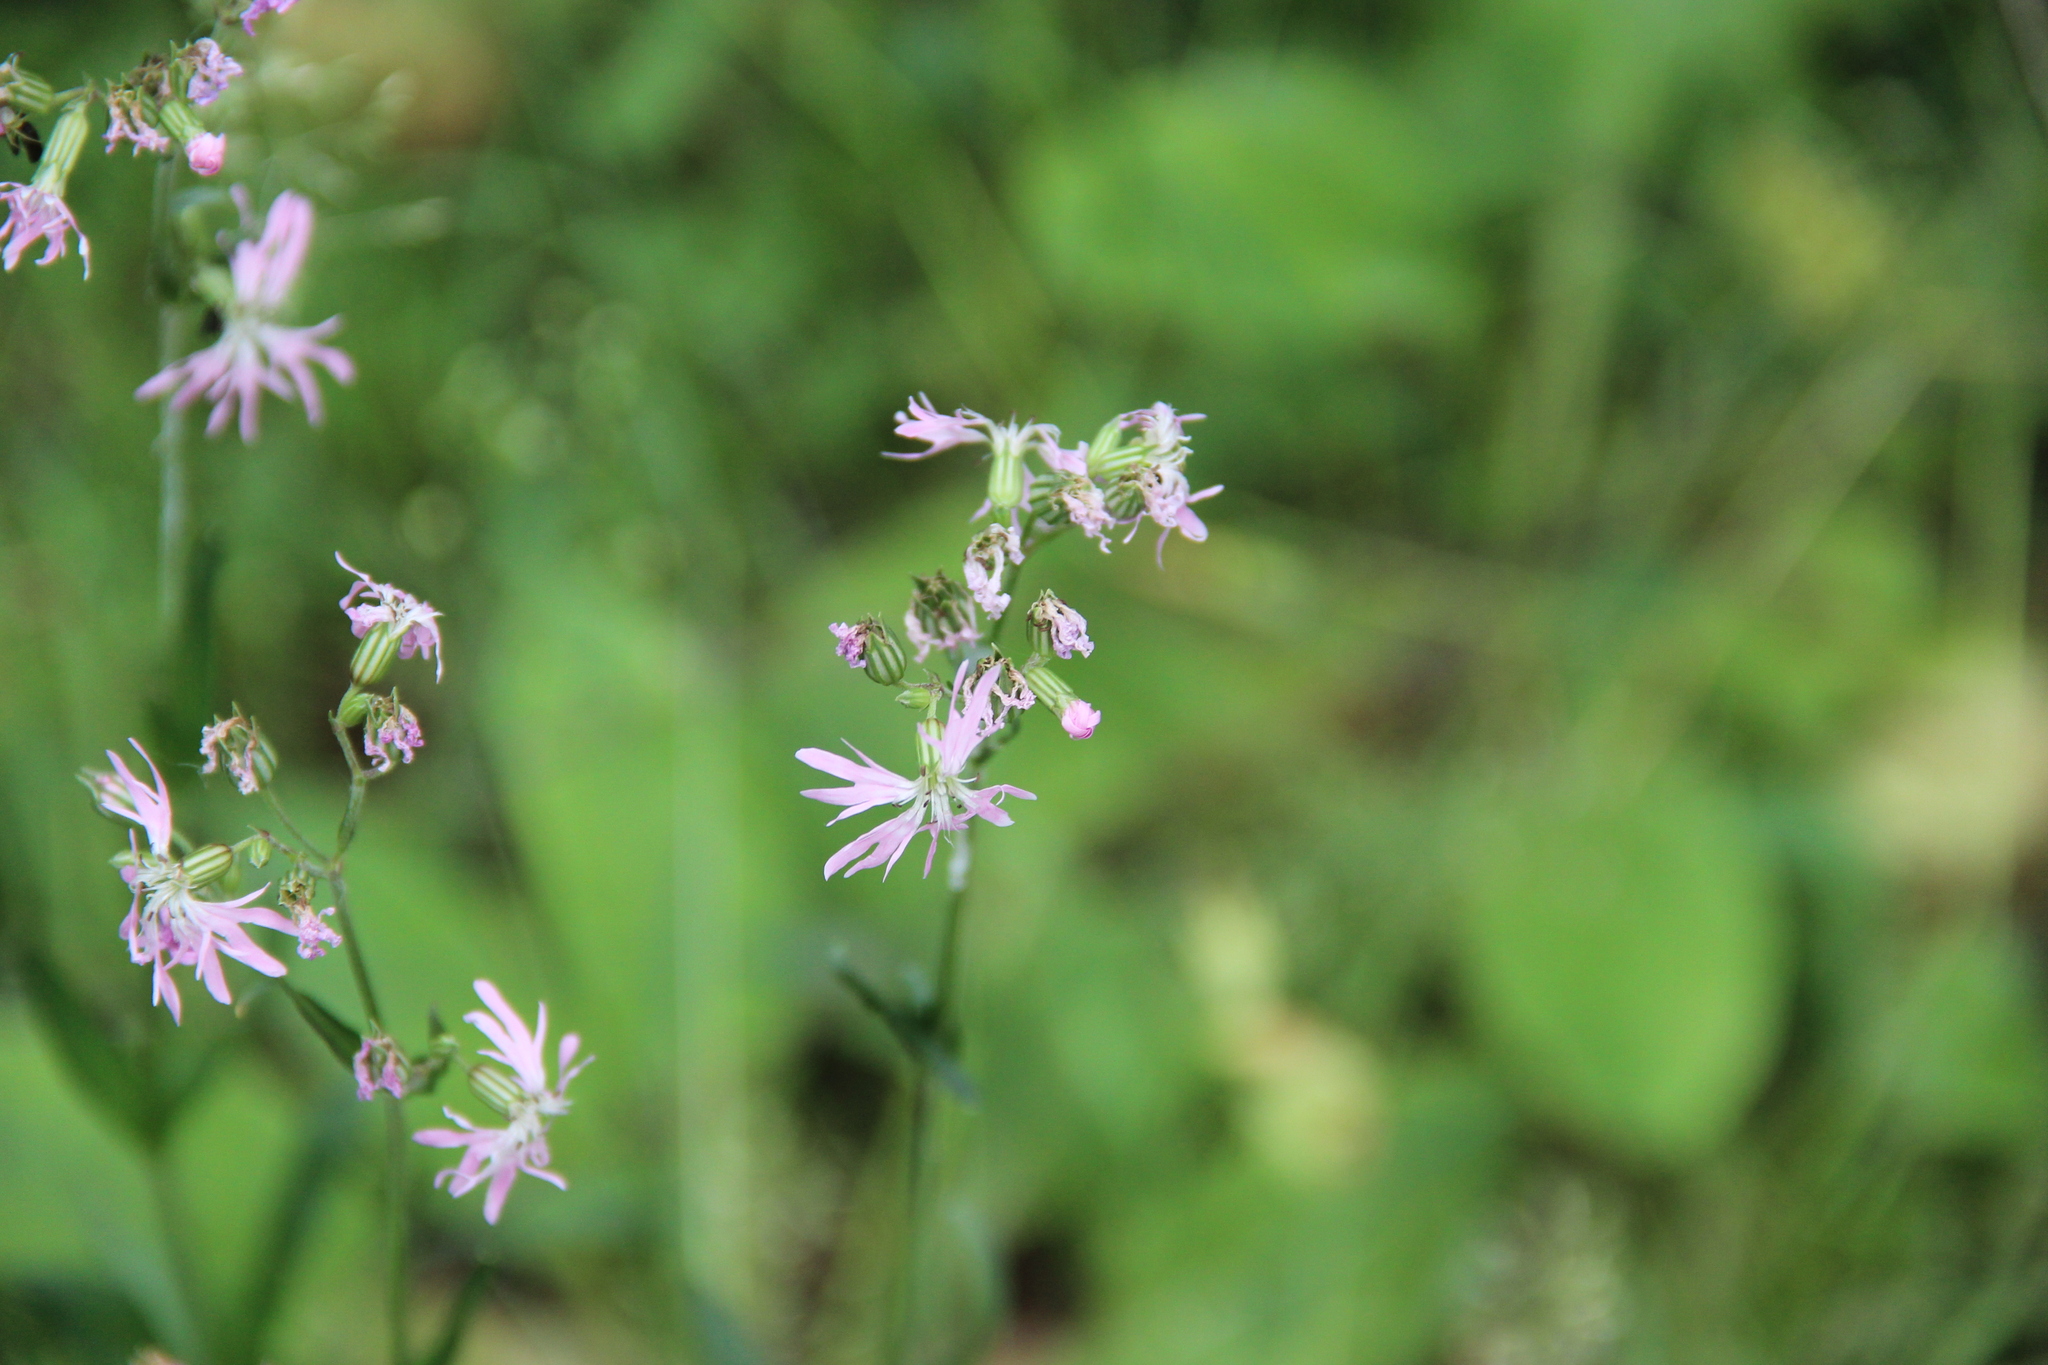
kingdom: Plantae
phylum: Tracheophyta
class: Magnoliopsida
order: Caryophyllales
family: Caryophyllaceae
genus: Silene
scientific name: Silene flos-cuculi
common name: Ragged-robin
